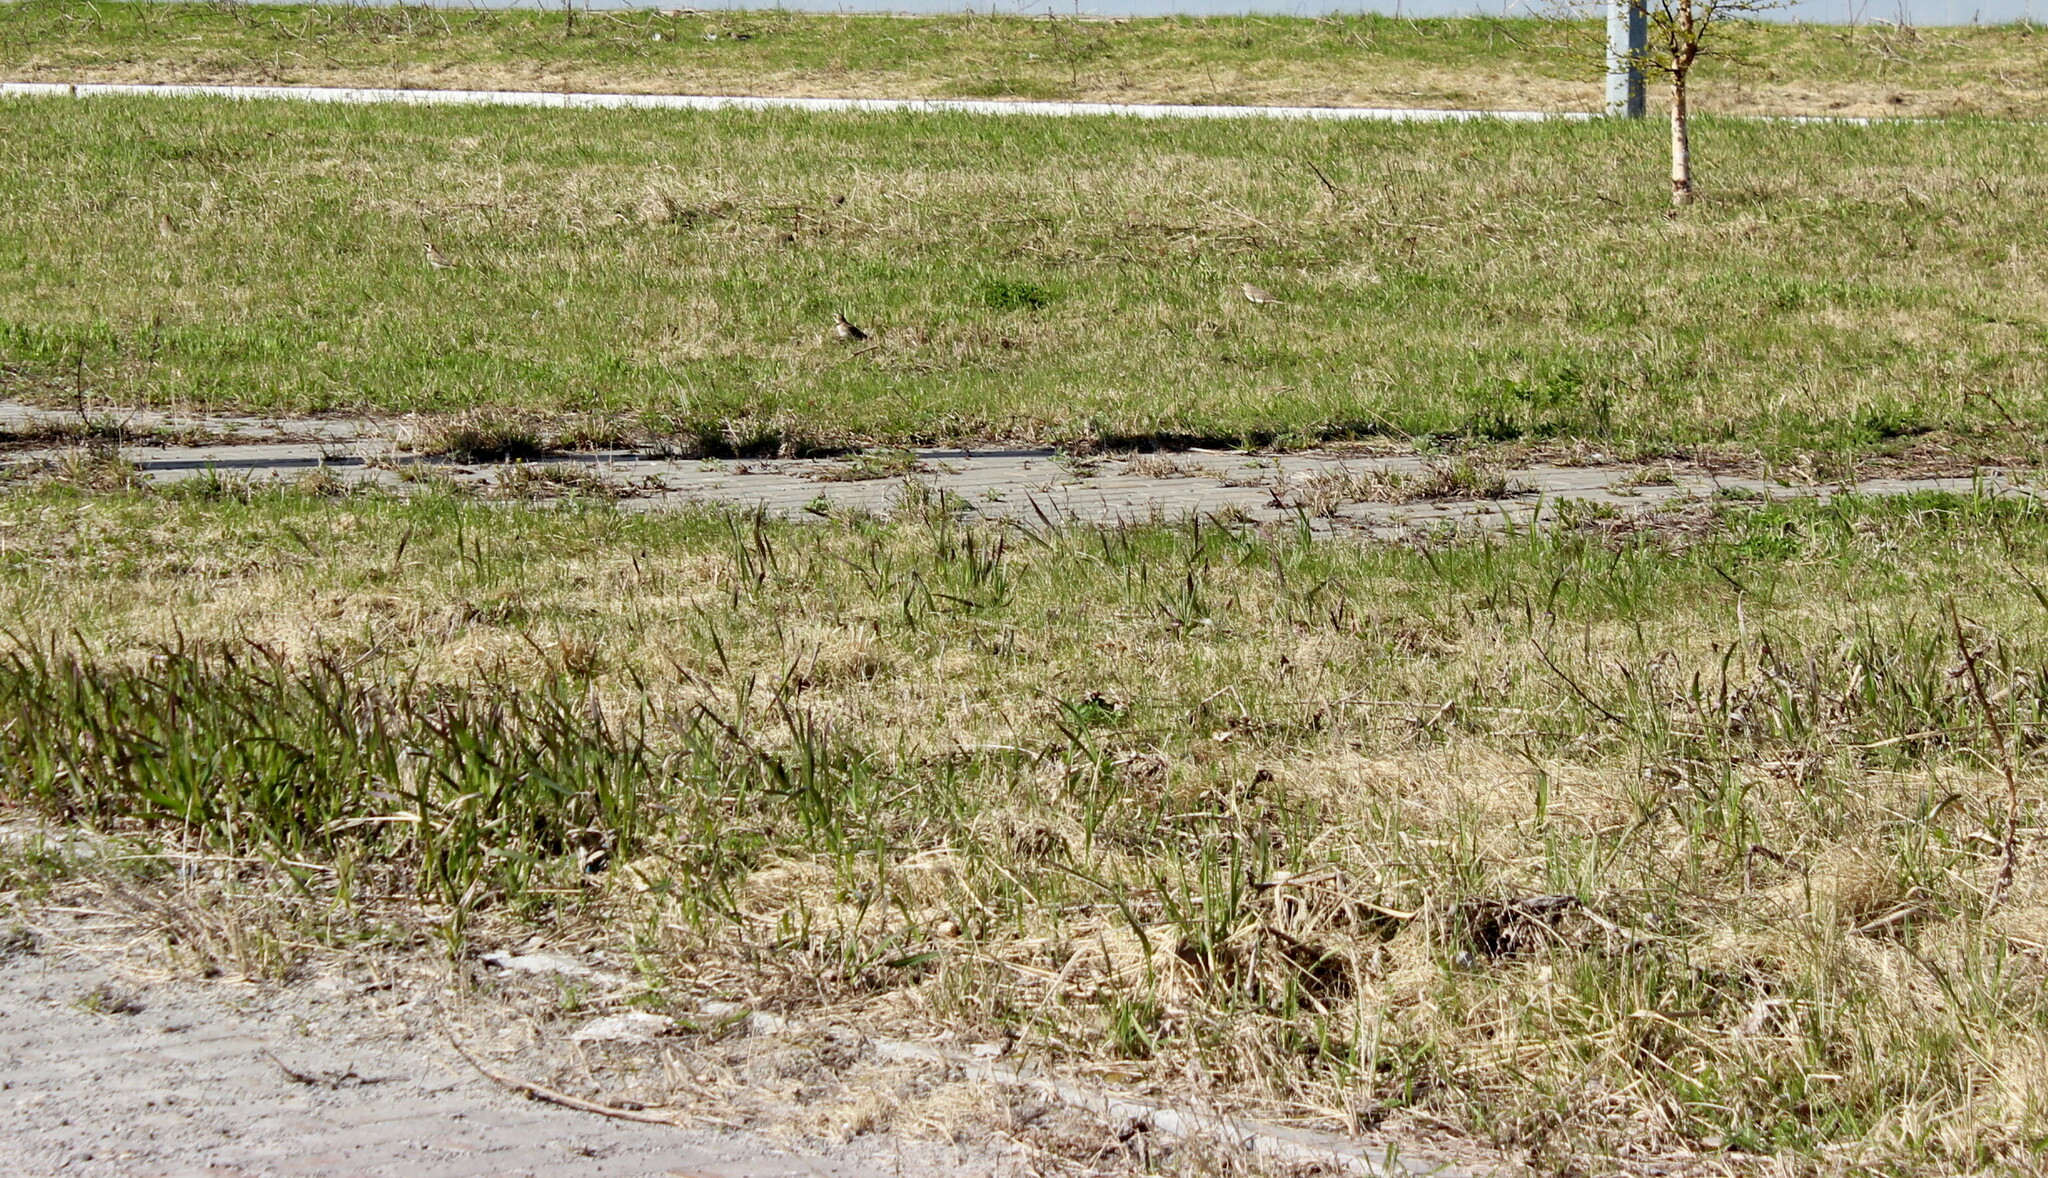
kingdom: Animalia
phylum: Chordata
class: Aves
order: Passeriformes
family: Alaudidae
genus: Eremophila
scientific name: Eremophila alpestris
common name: Horned lark
